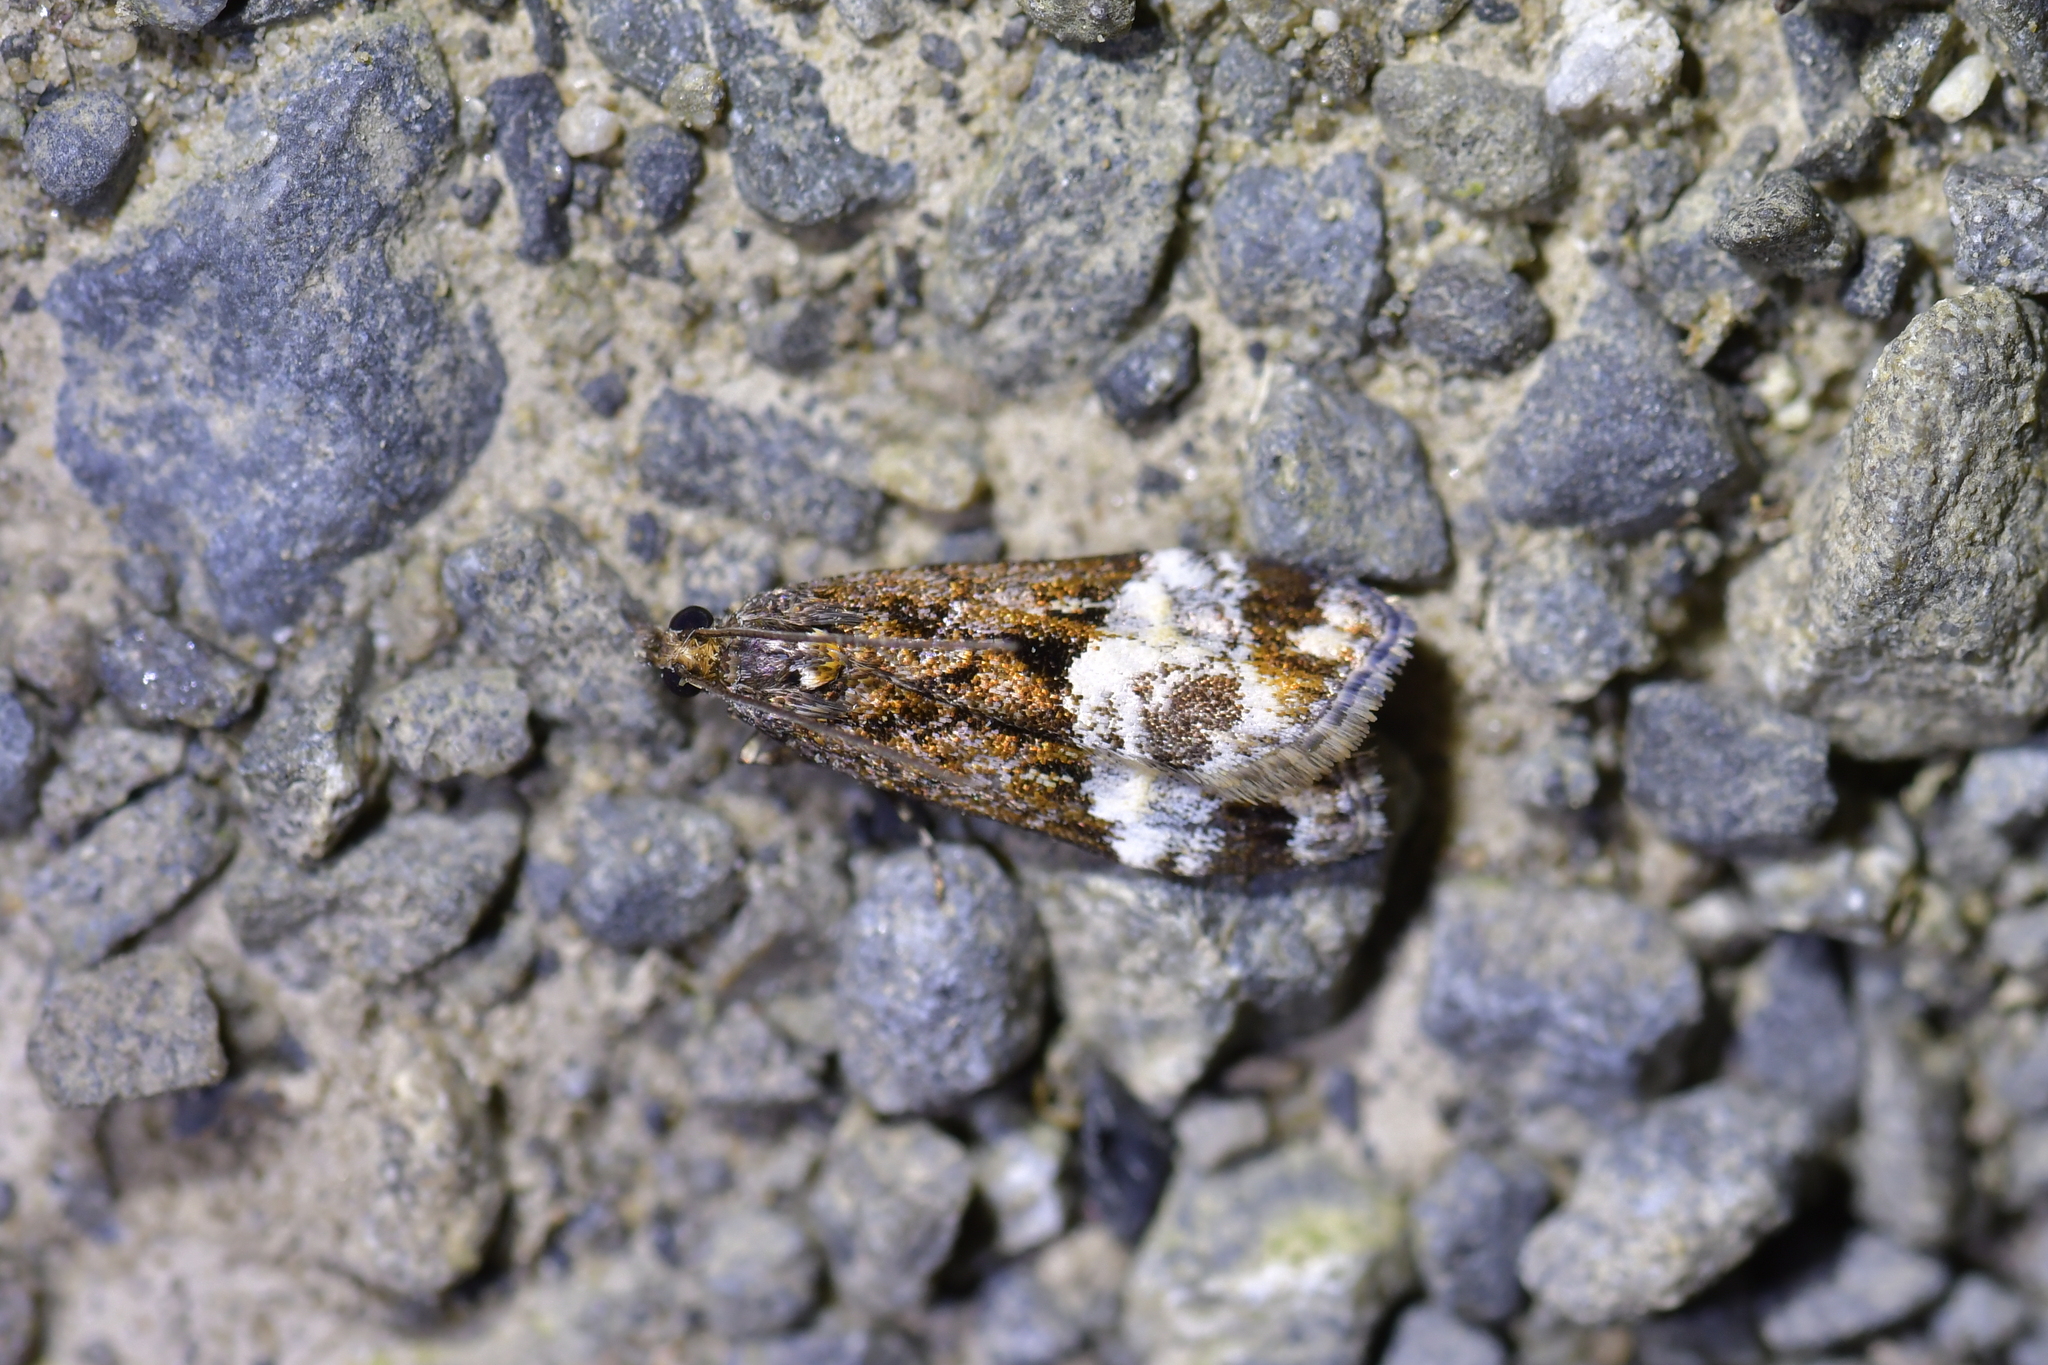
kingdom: Animalia
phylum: Arthropoda
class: Insecta
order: Lepidoptera
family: Crambidae
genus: Scoparia
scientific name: Scoparia minusculalis
